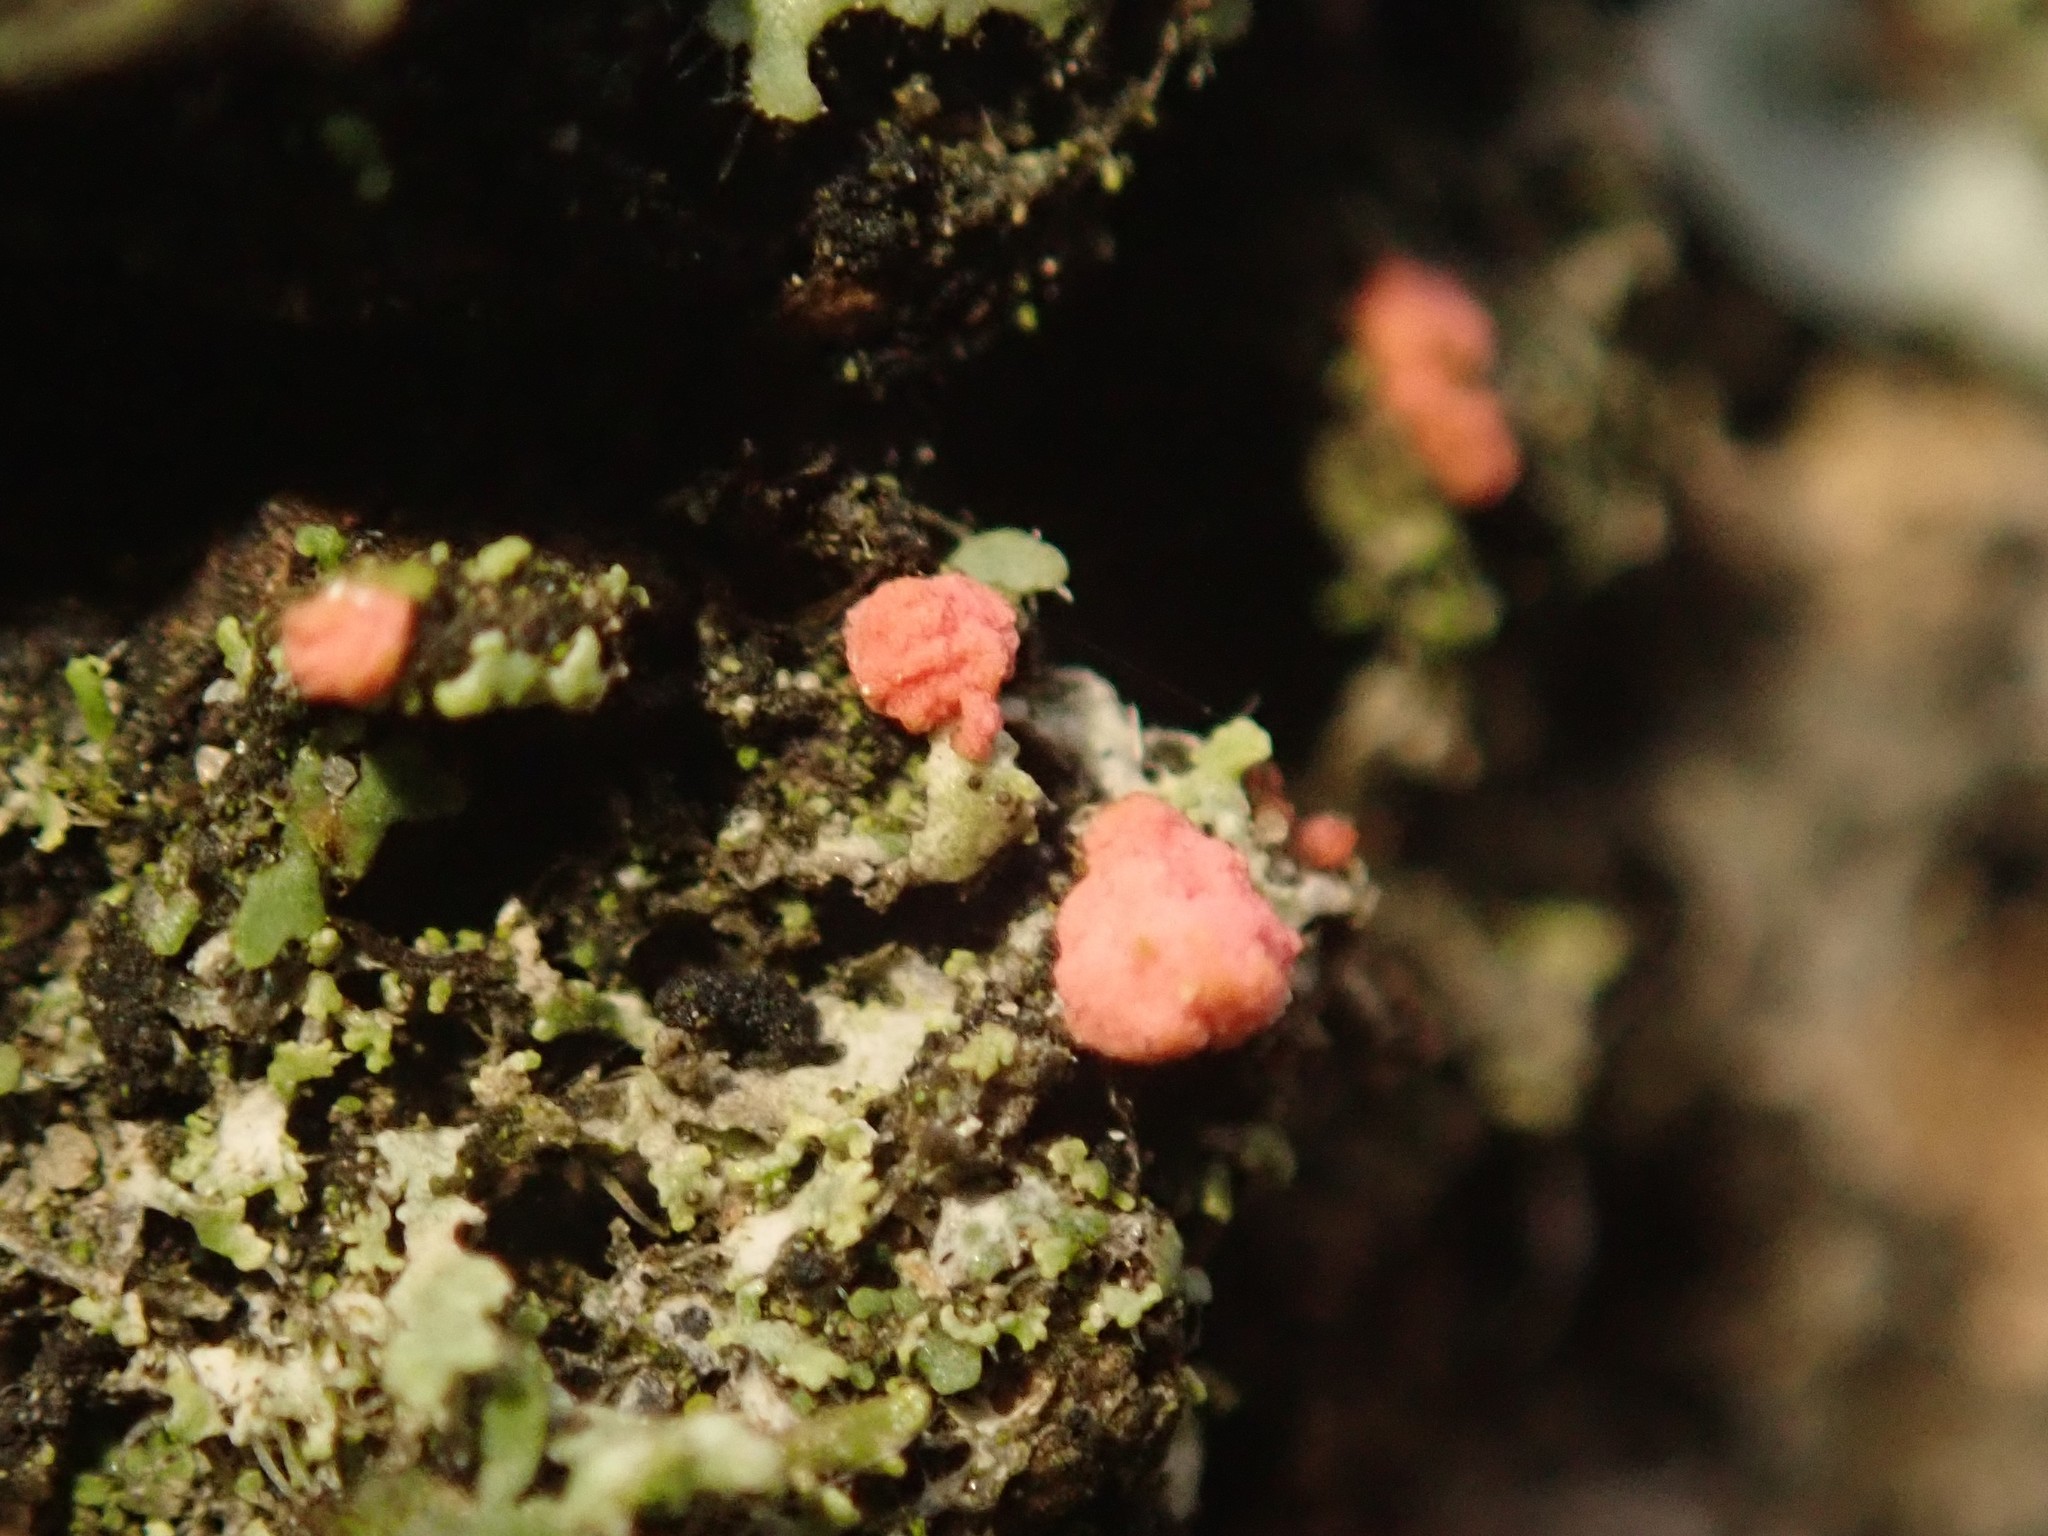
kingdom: Fungi
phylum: Ascomycota
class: Sordariomycetes
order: Hypocreales
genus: Illosporiopsis
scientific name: Illosporiopsis christiansenii
